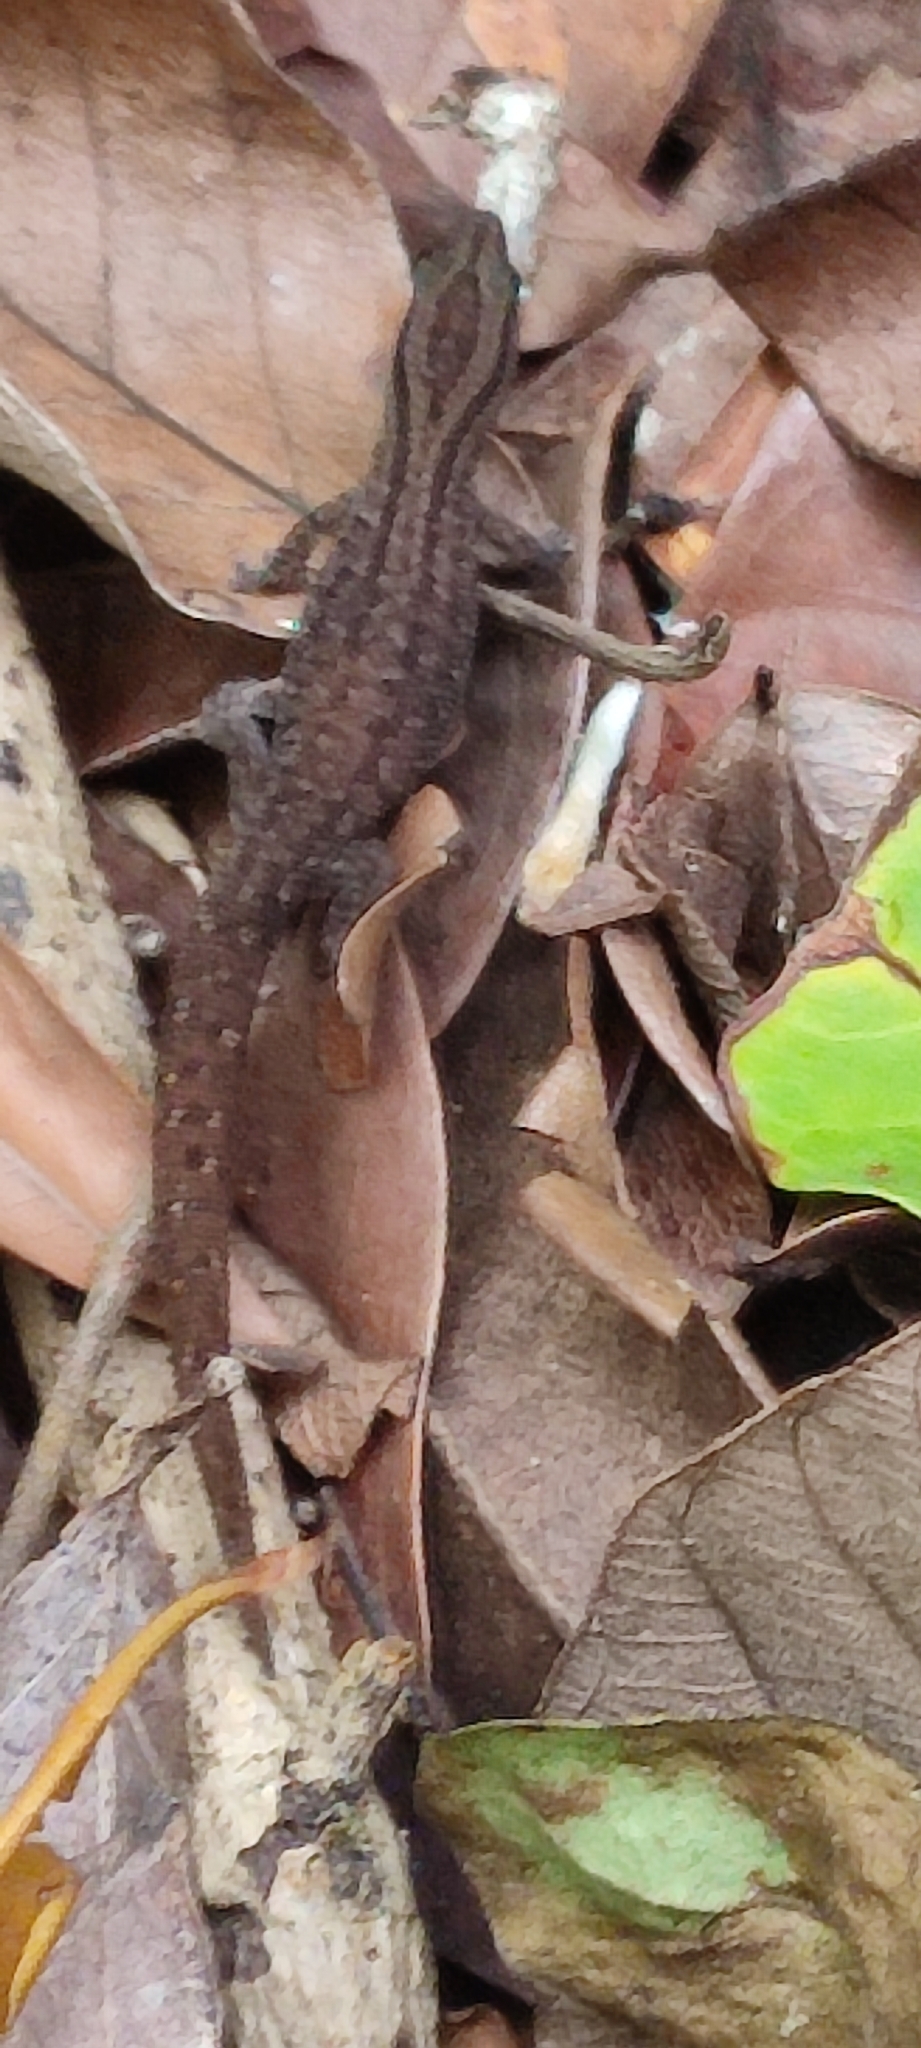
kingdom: Animalia
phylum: Chordata
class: Squamata
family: Sphaerodactylidae
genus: Sphaerodactylus
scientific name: Sphaerodactylus fantasticus
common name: Fantastic least gecko
